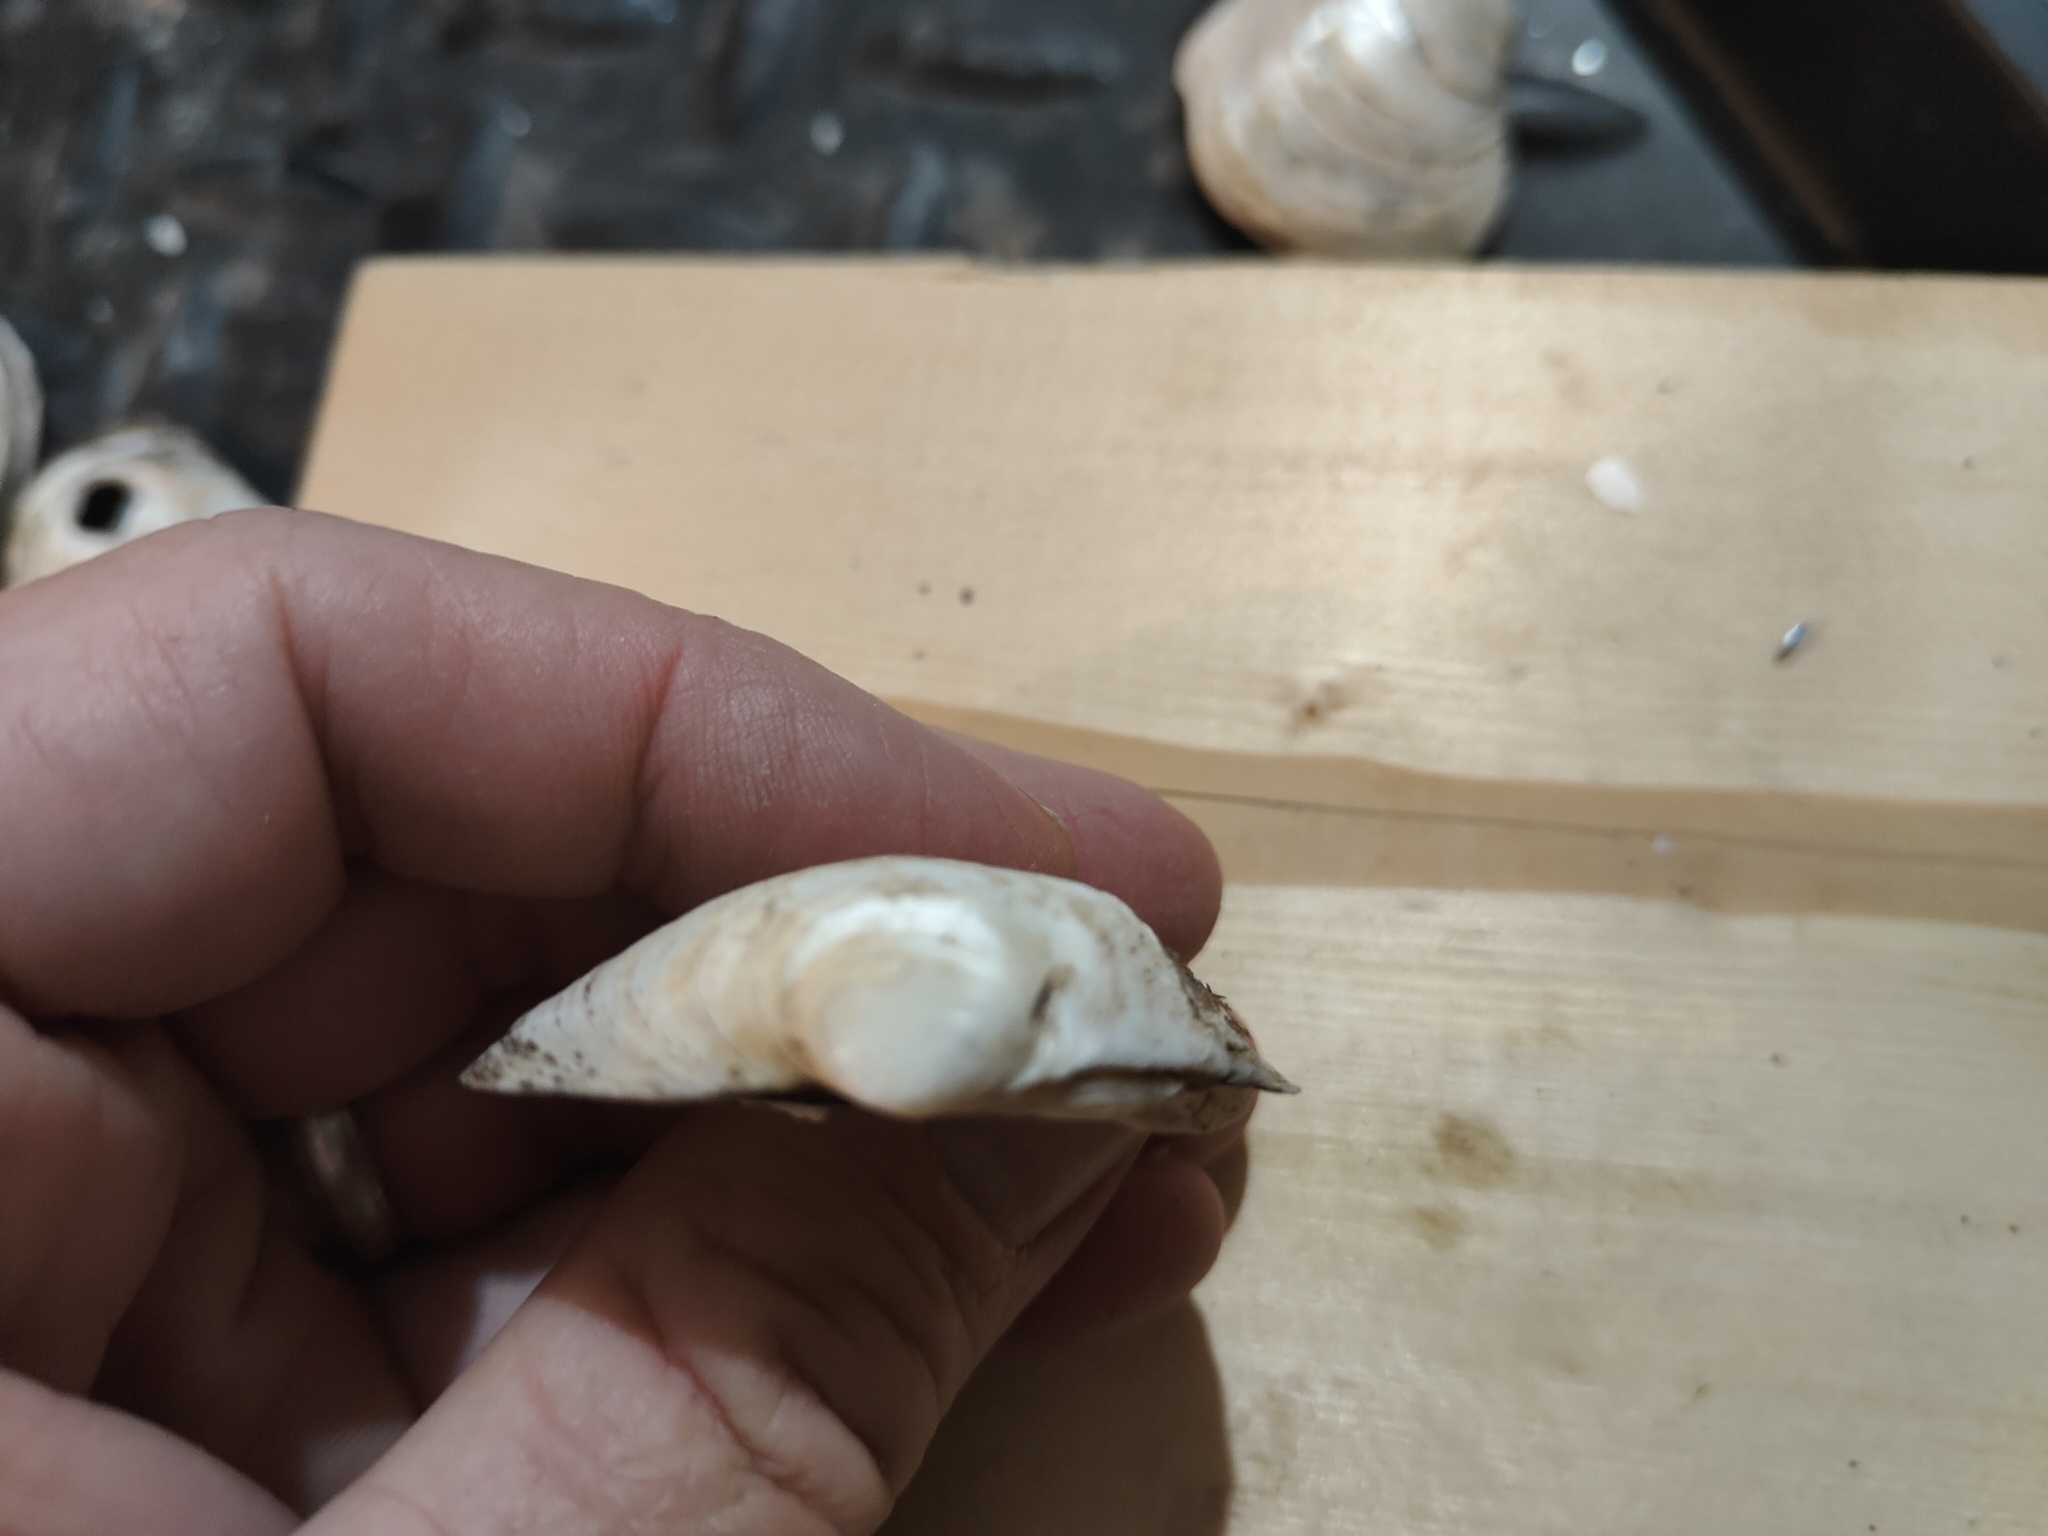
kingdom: Animalia
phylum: Mollusca
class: Bivalvia
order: Unionida
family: Unionidae
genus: Cyclonaias
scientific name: Cyclonaias pustulosa
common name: Pimpleback
